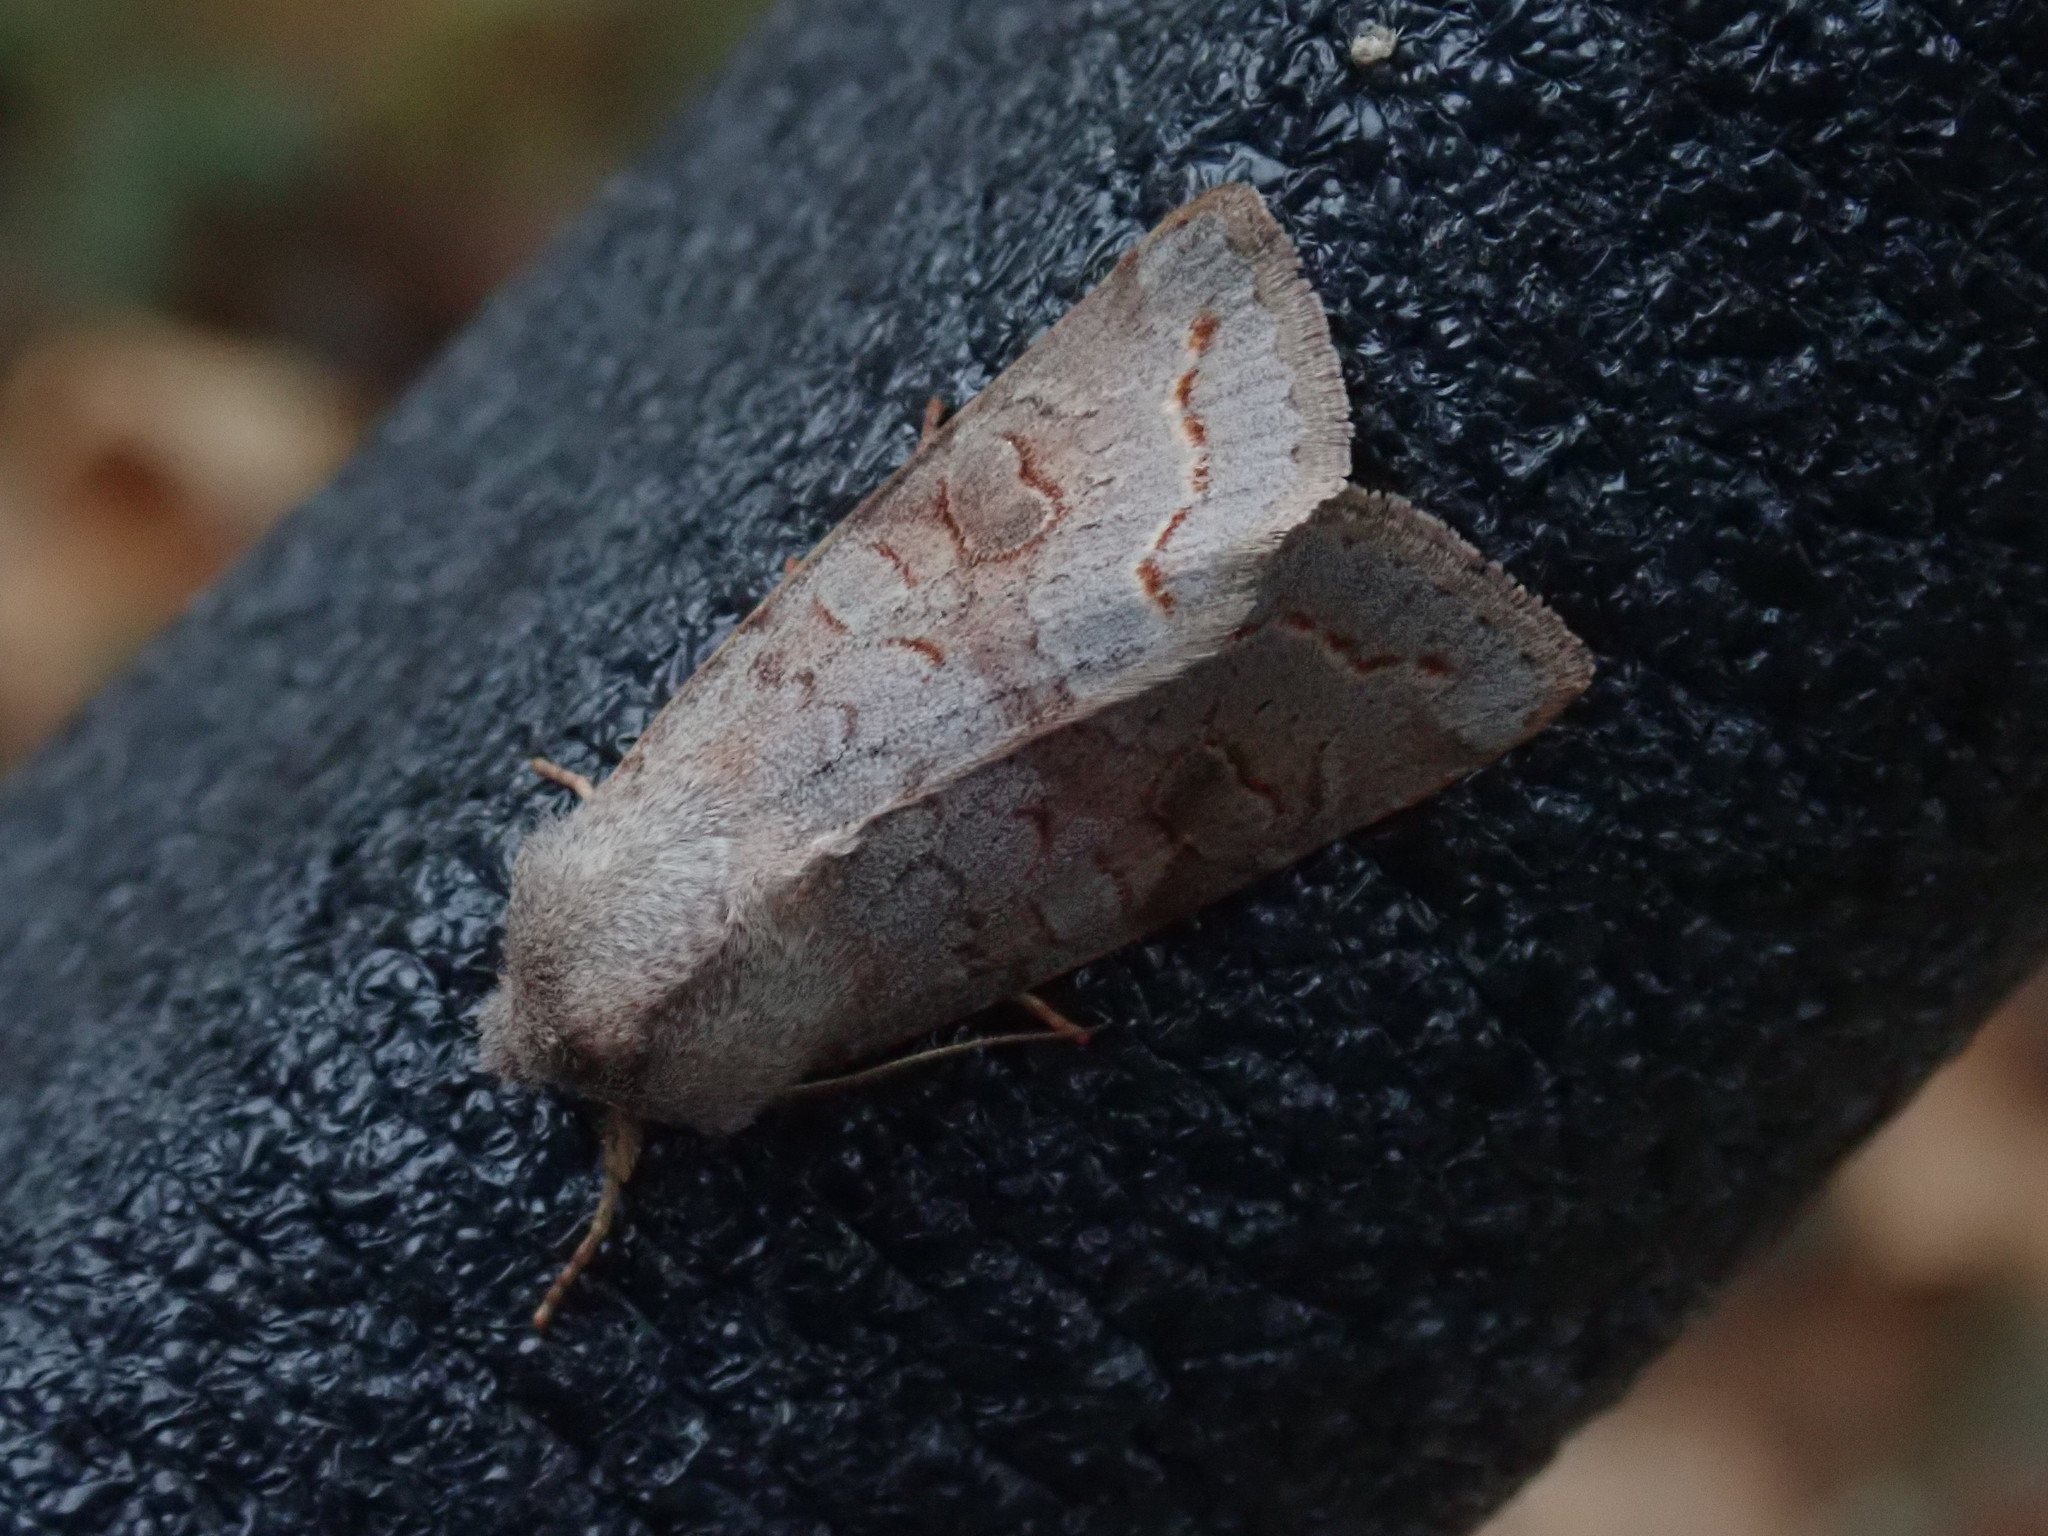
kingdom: Animalia
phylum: Arthropoda
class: Insecta
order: Lepidoptera
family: Noctuidae
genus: Orthosia
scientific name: Orthosia revicta
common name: Rusty whitesided caterpillar
